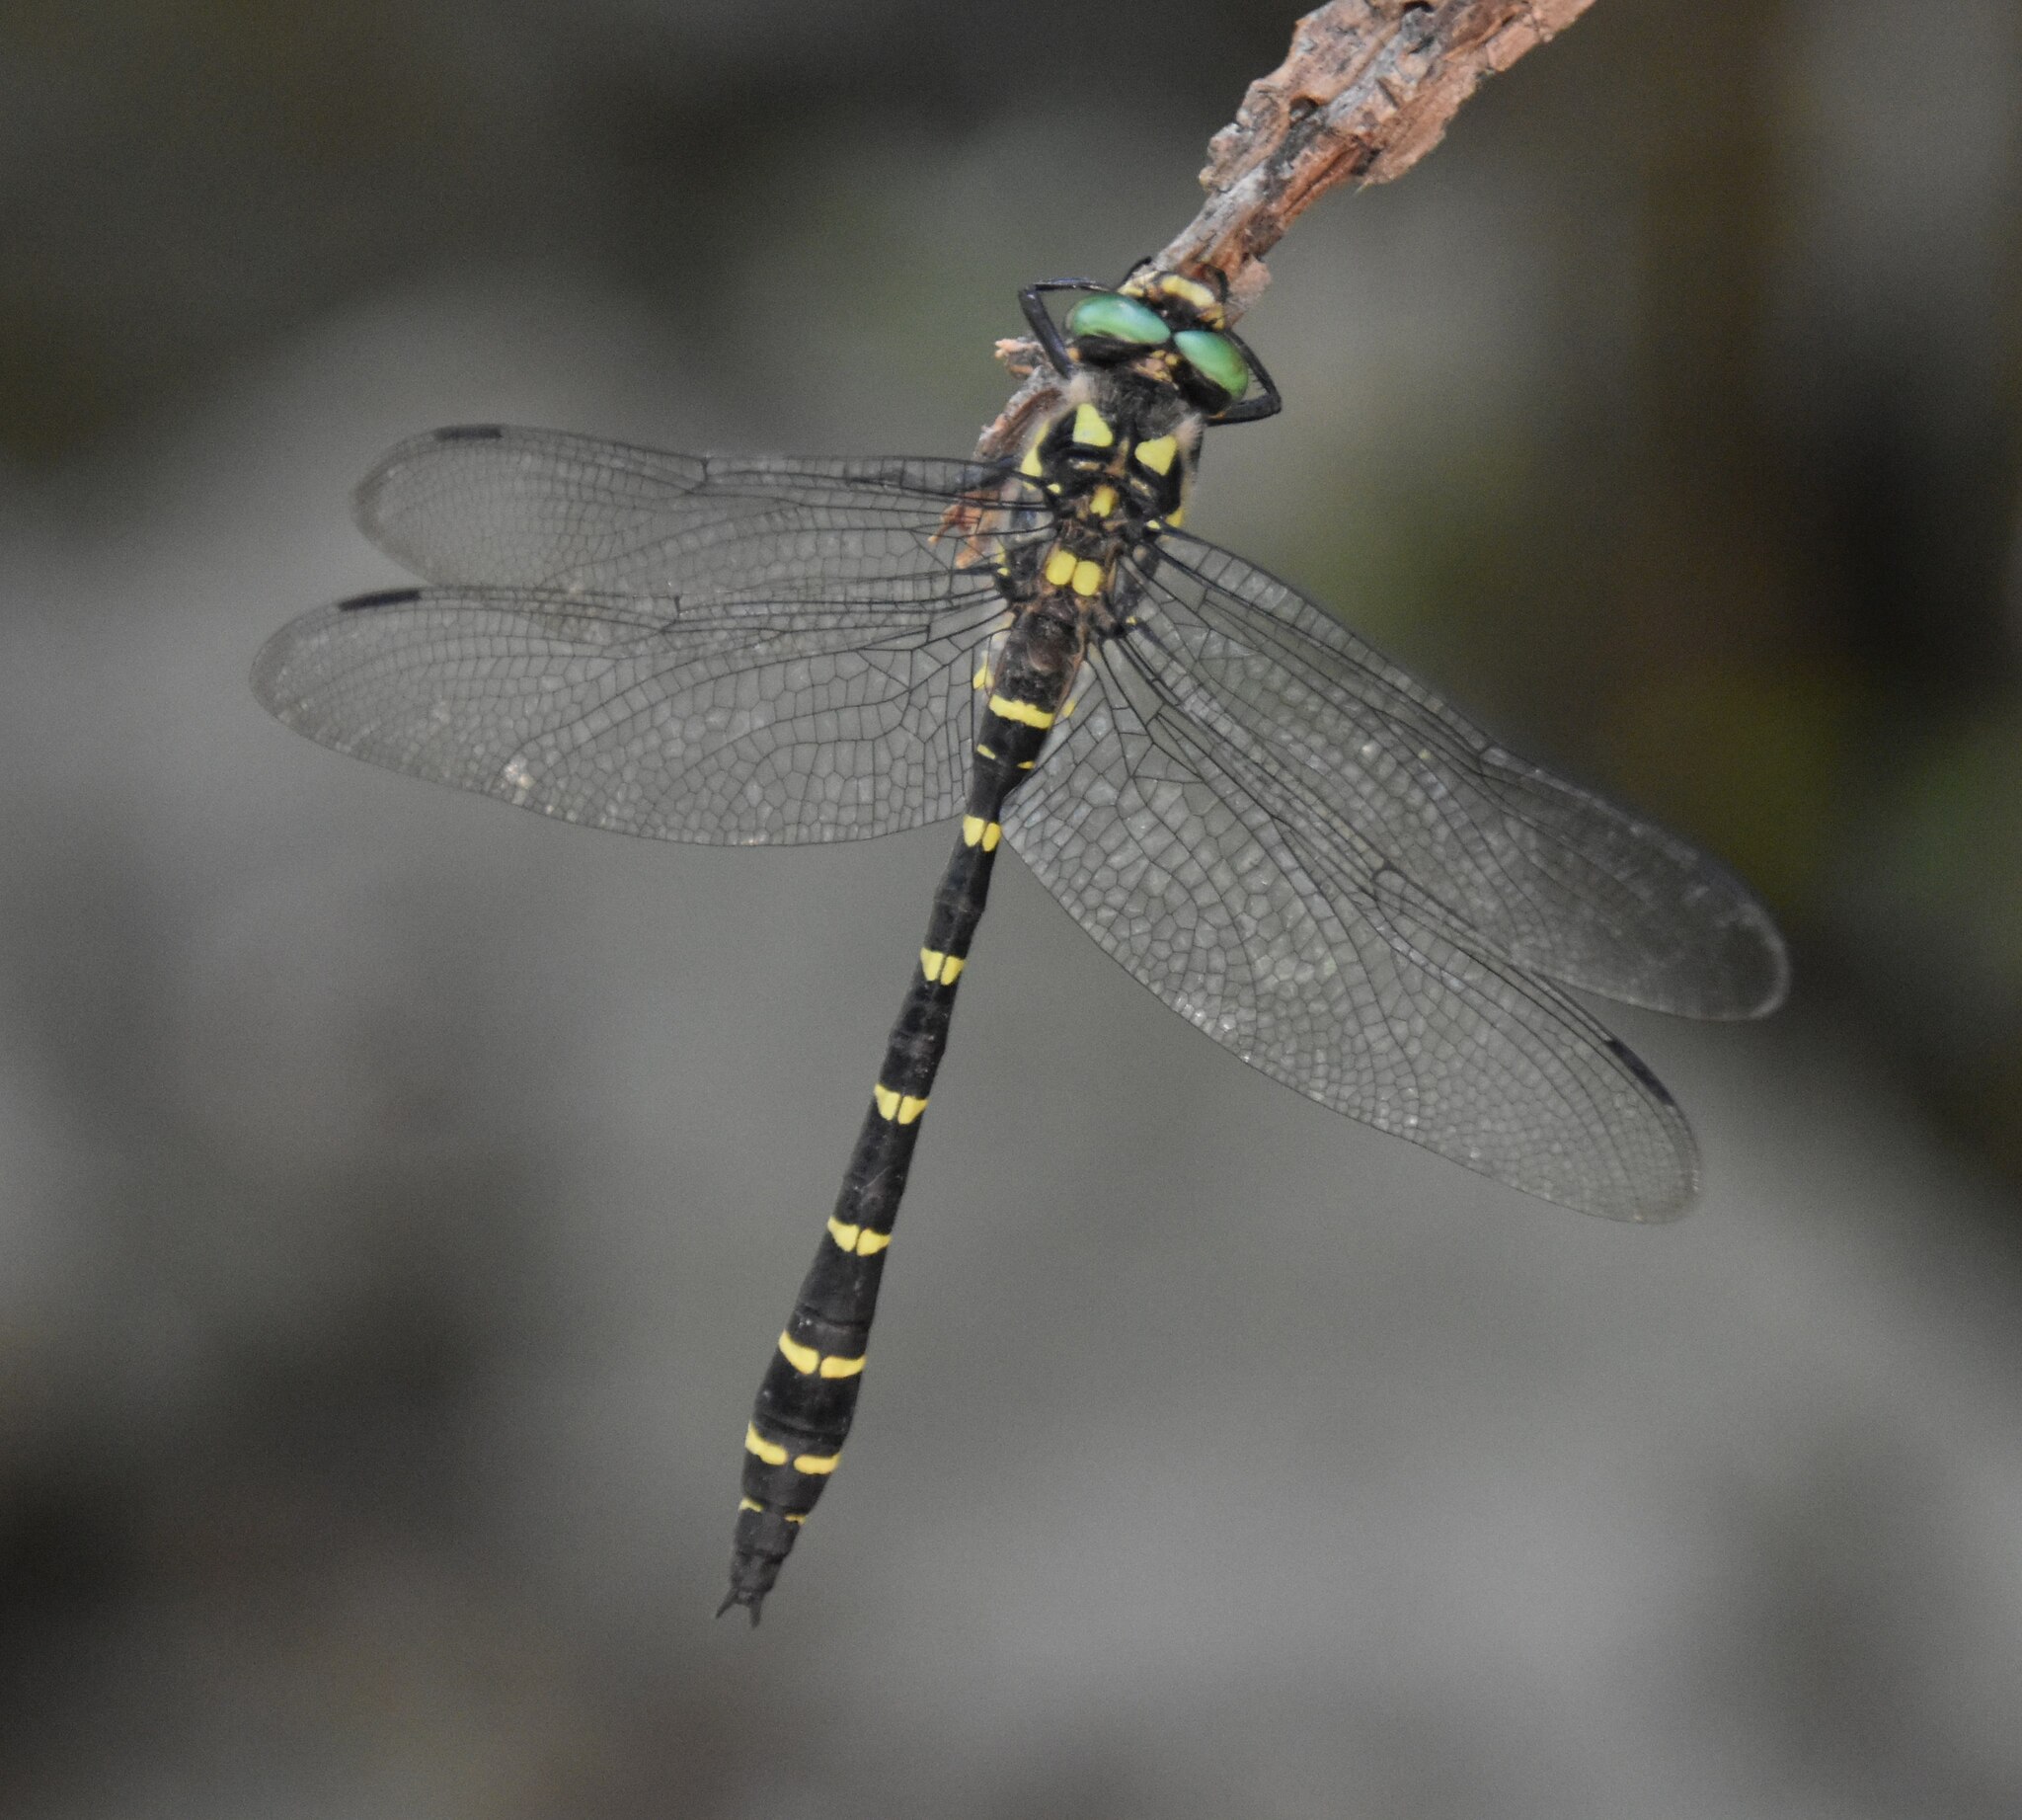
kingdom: Animalia
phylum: Arthropoda
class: Insecta
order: Odonata
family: Cordulegastridae
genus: Cordulegaster
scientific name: Cordulegaster bidentata
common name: Sombre goldenring
